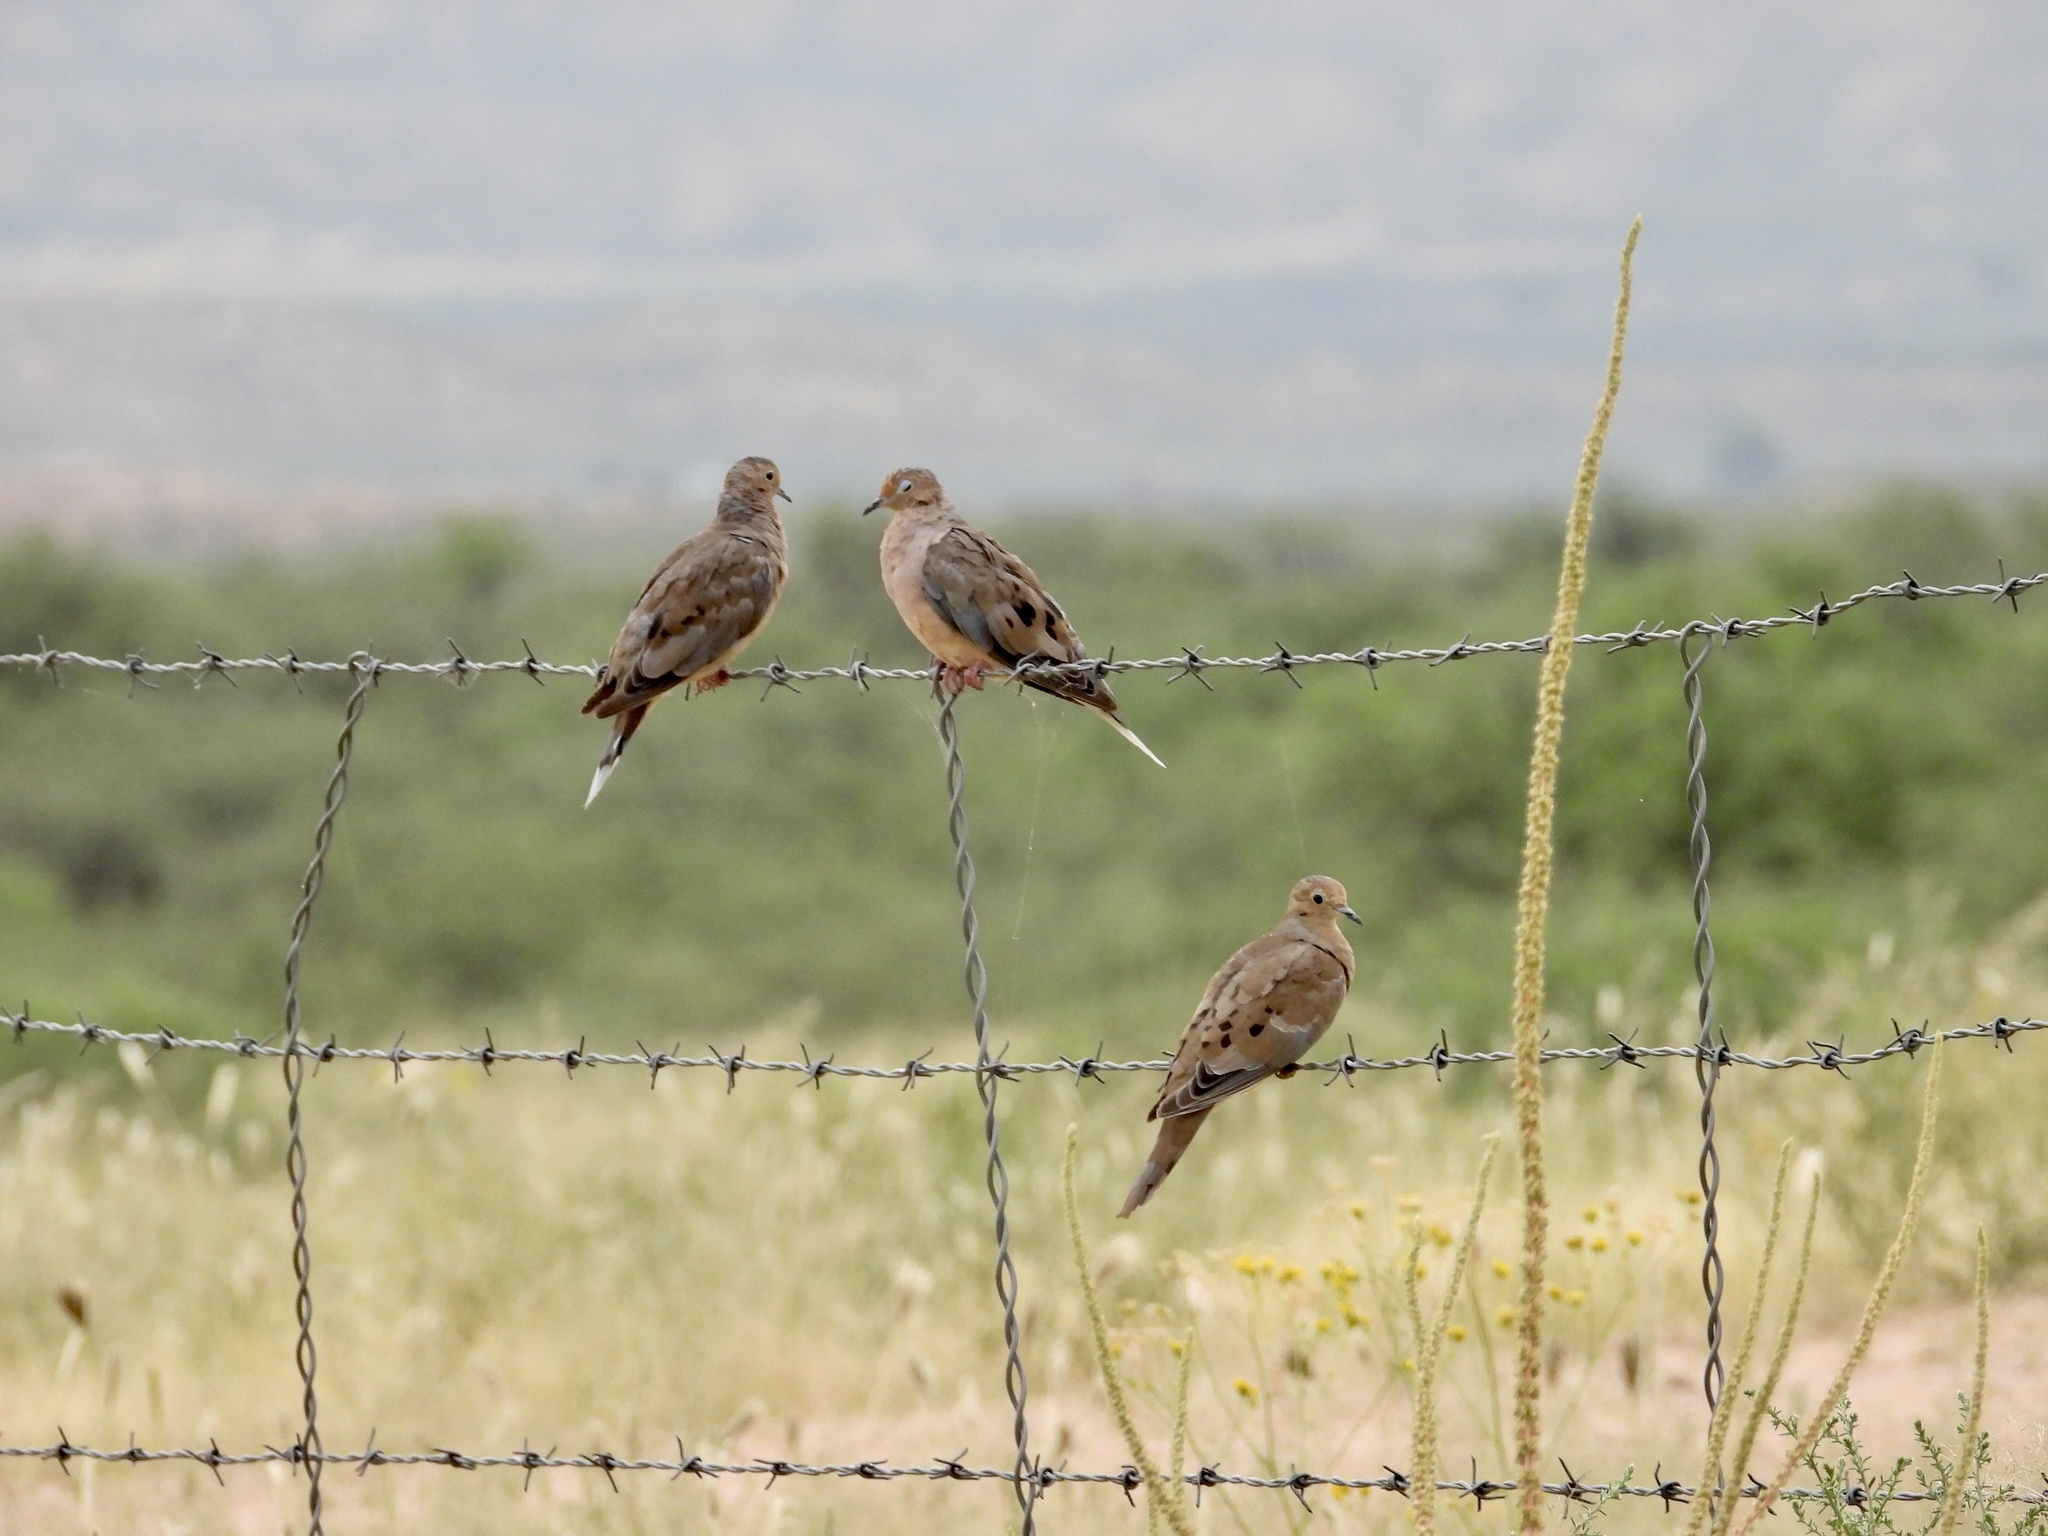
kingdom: Animalia
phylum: Chordata
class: Aves
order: Columbiformes
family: Columbidae
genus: Zenaida
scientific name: Zenaida macroura
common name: Mourning dove
